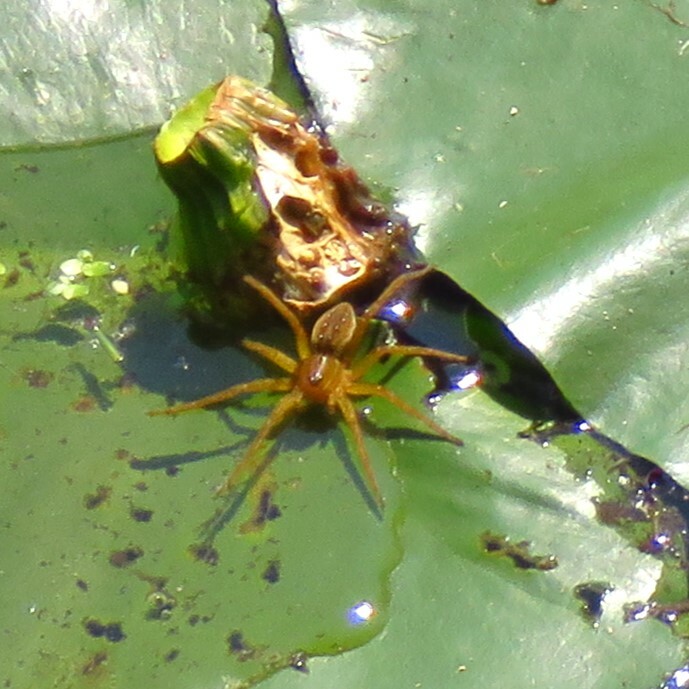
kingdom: Animalia
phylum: Arthropoda
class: Arachnida
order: Araneae
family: Pisauridae
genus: Dolomedes
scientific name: Dolomedes triton
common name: Six-spotted fishing spider
